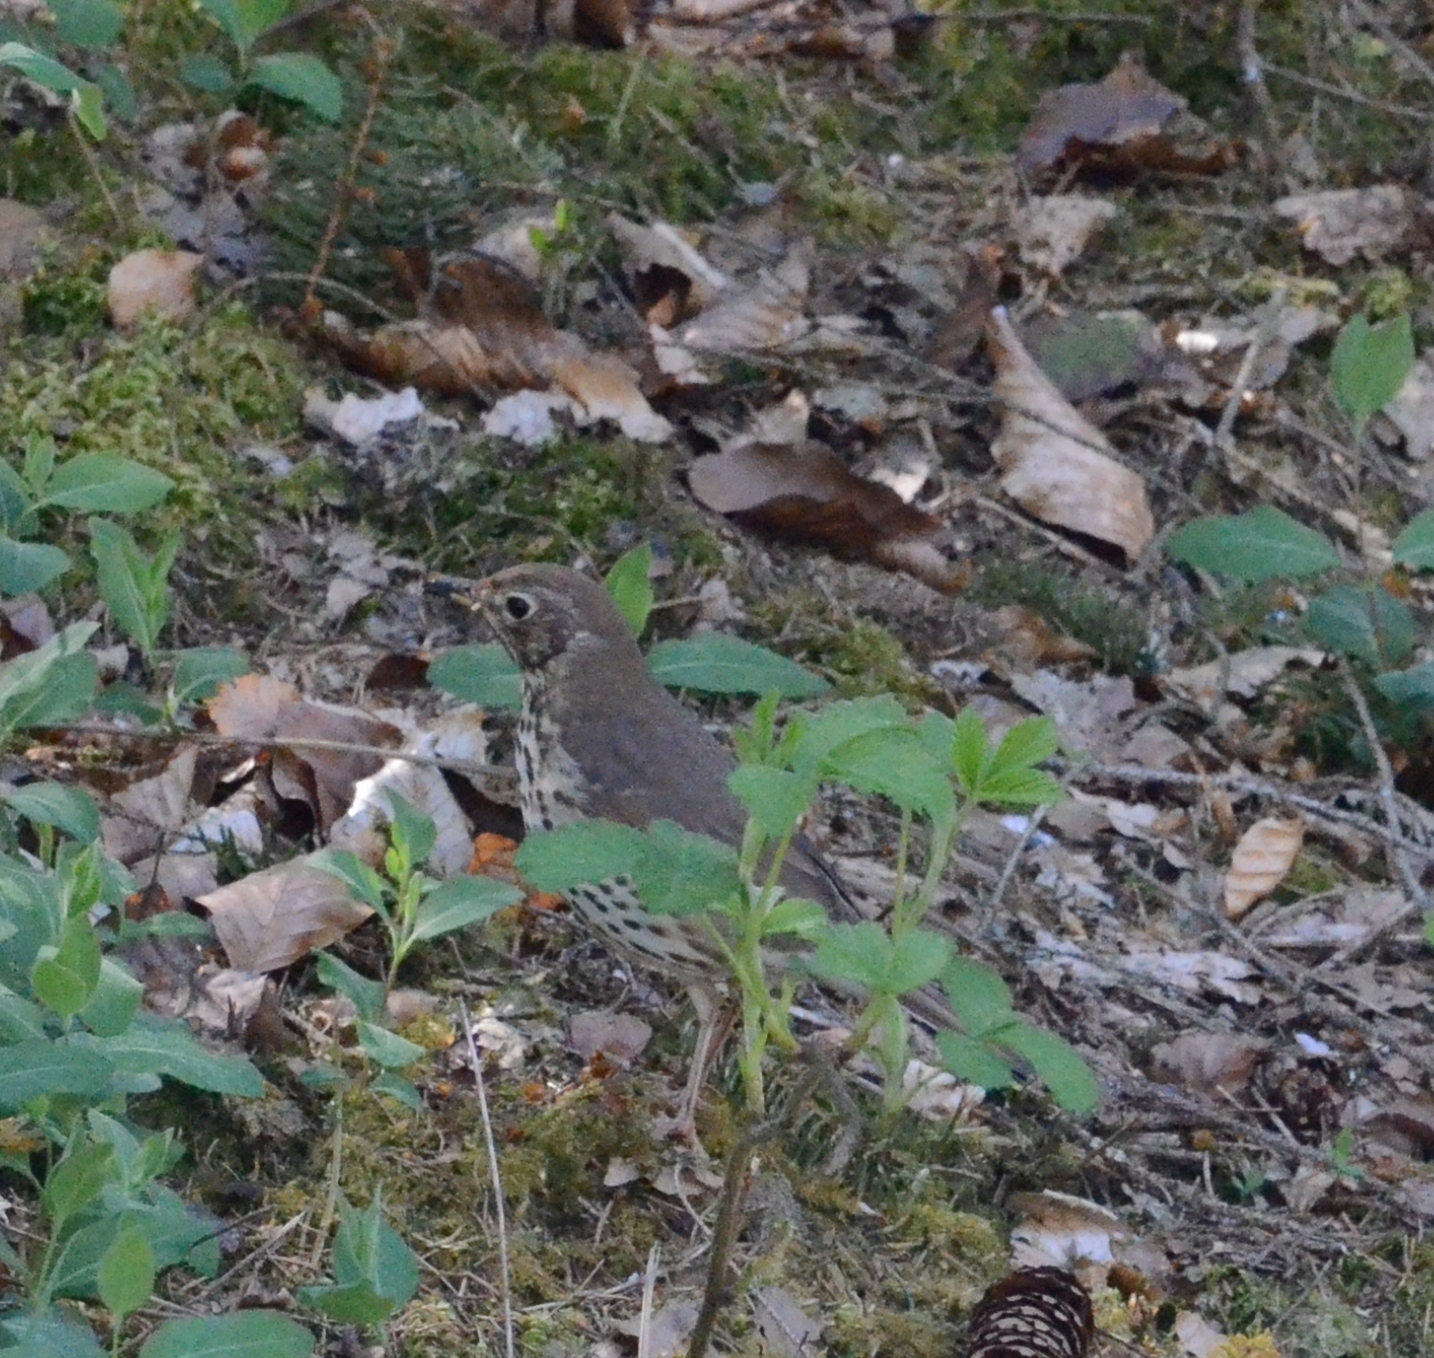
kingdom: Animalia
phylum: Chordata
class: Aves
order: Passeriformes
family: Turdidae
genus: Turdus
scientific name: Turdus philomelos
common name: Song thrush
